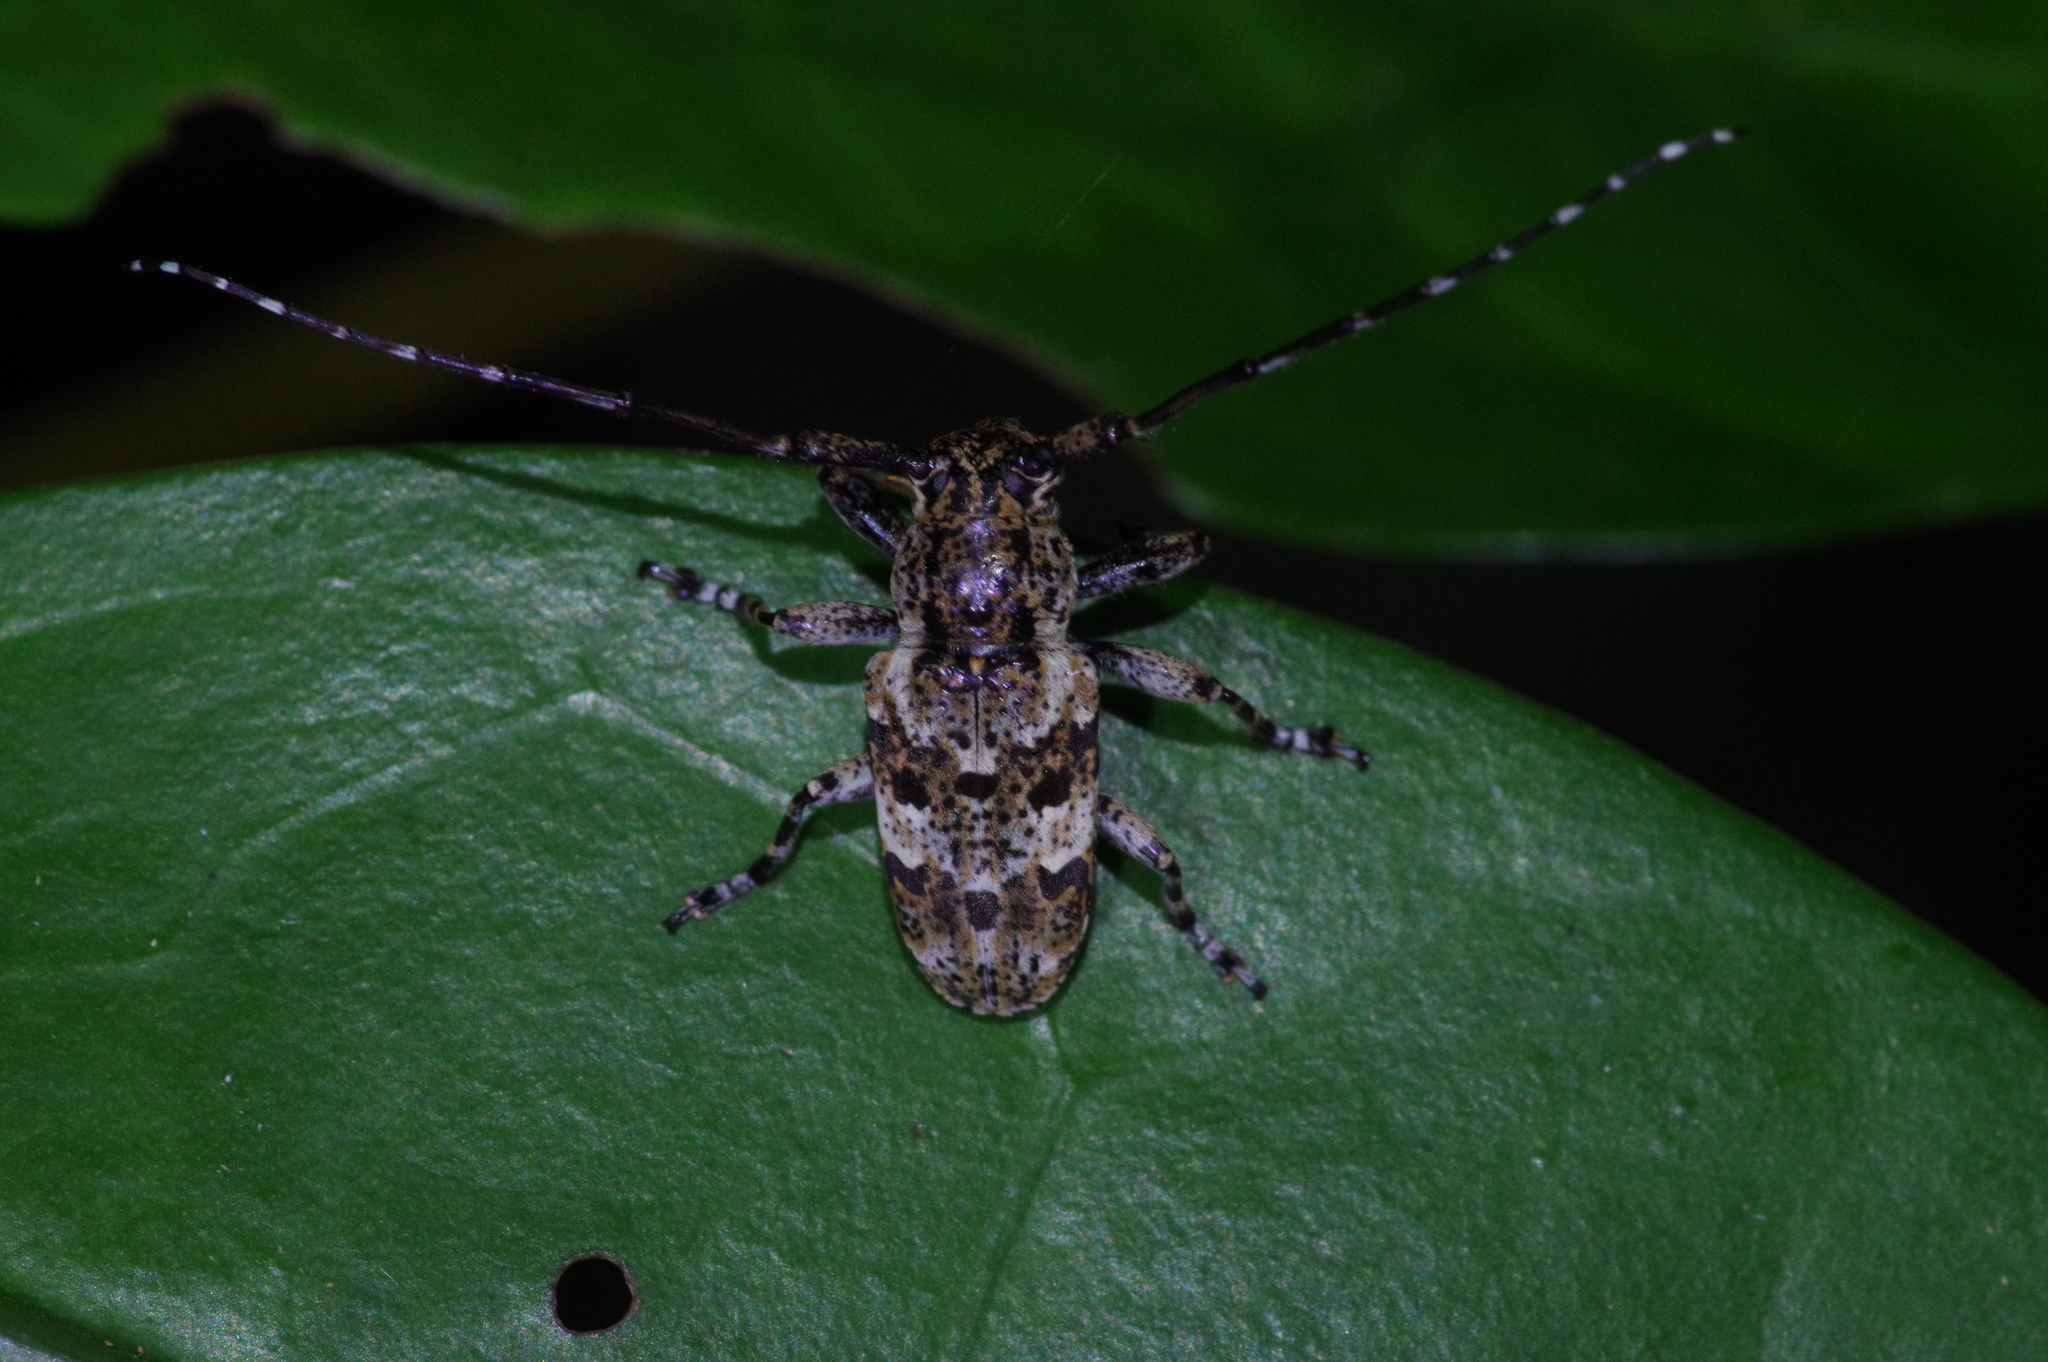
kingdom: Animalia
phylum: Arthropoda
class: Insecta
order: Coleoptera
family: Cerambycidae
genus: Agelasta
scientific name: Agelasta konoi
